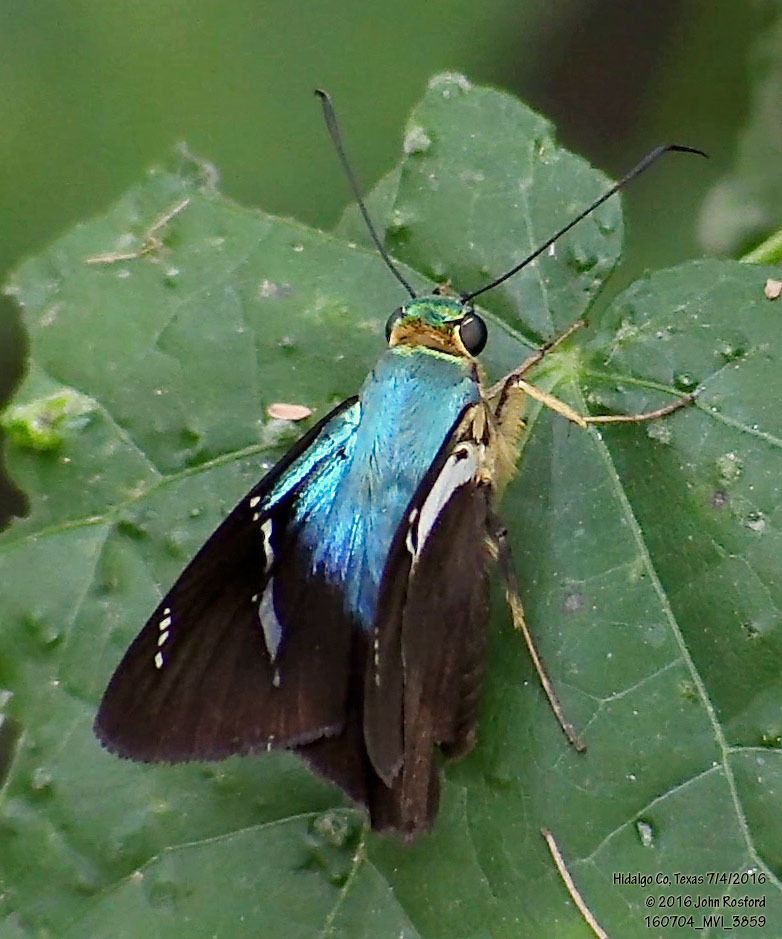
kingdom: Animalia
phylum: Arthropoda
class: Insecta
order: Lepidoptera
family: Hesperiidae
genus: Astraptes
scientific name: Astraptes fulgerator
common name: Two-barred flasher
